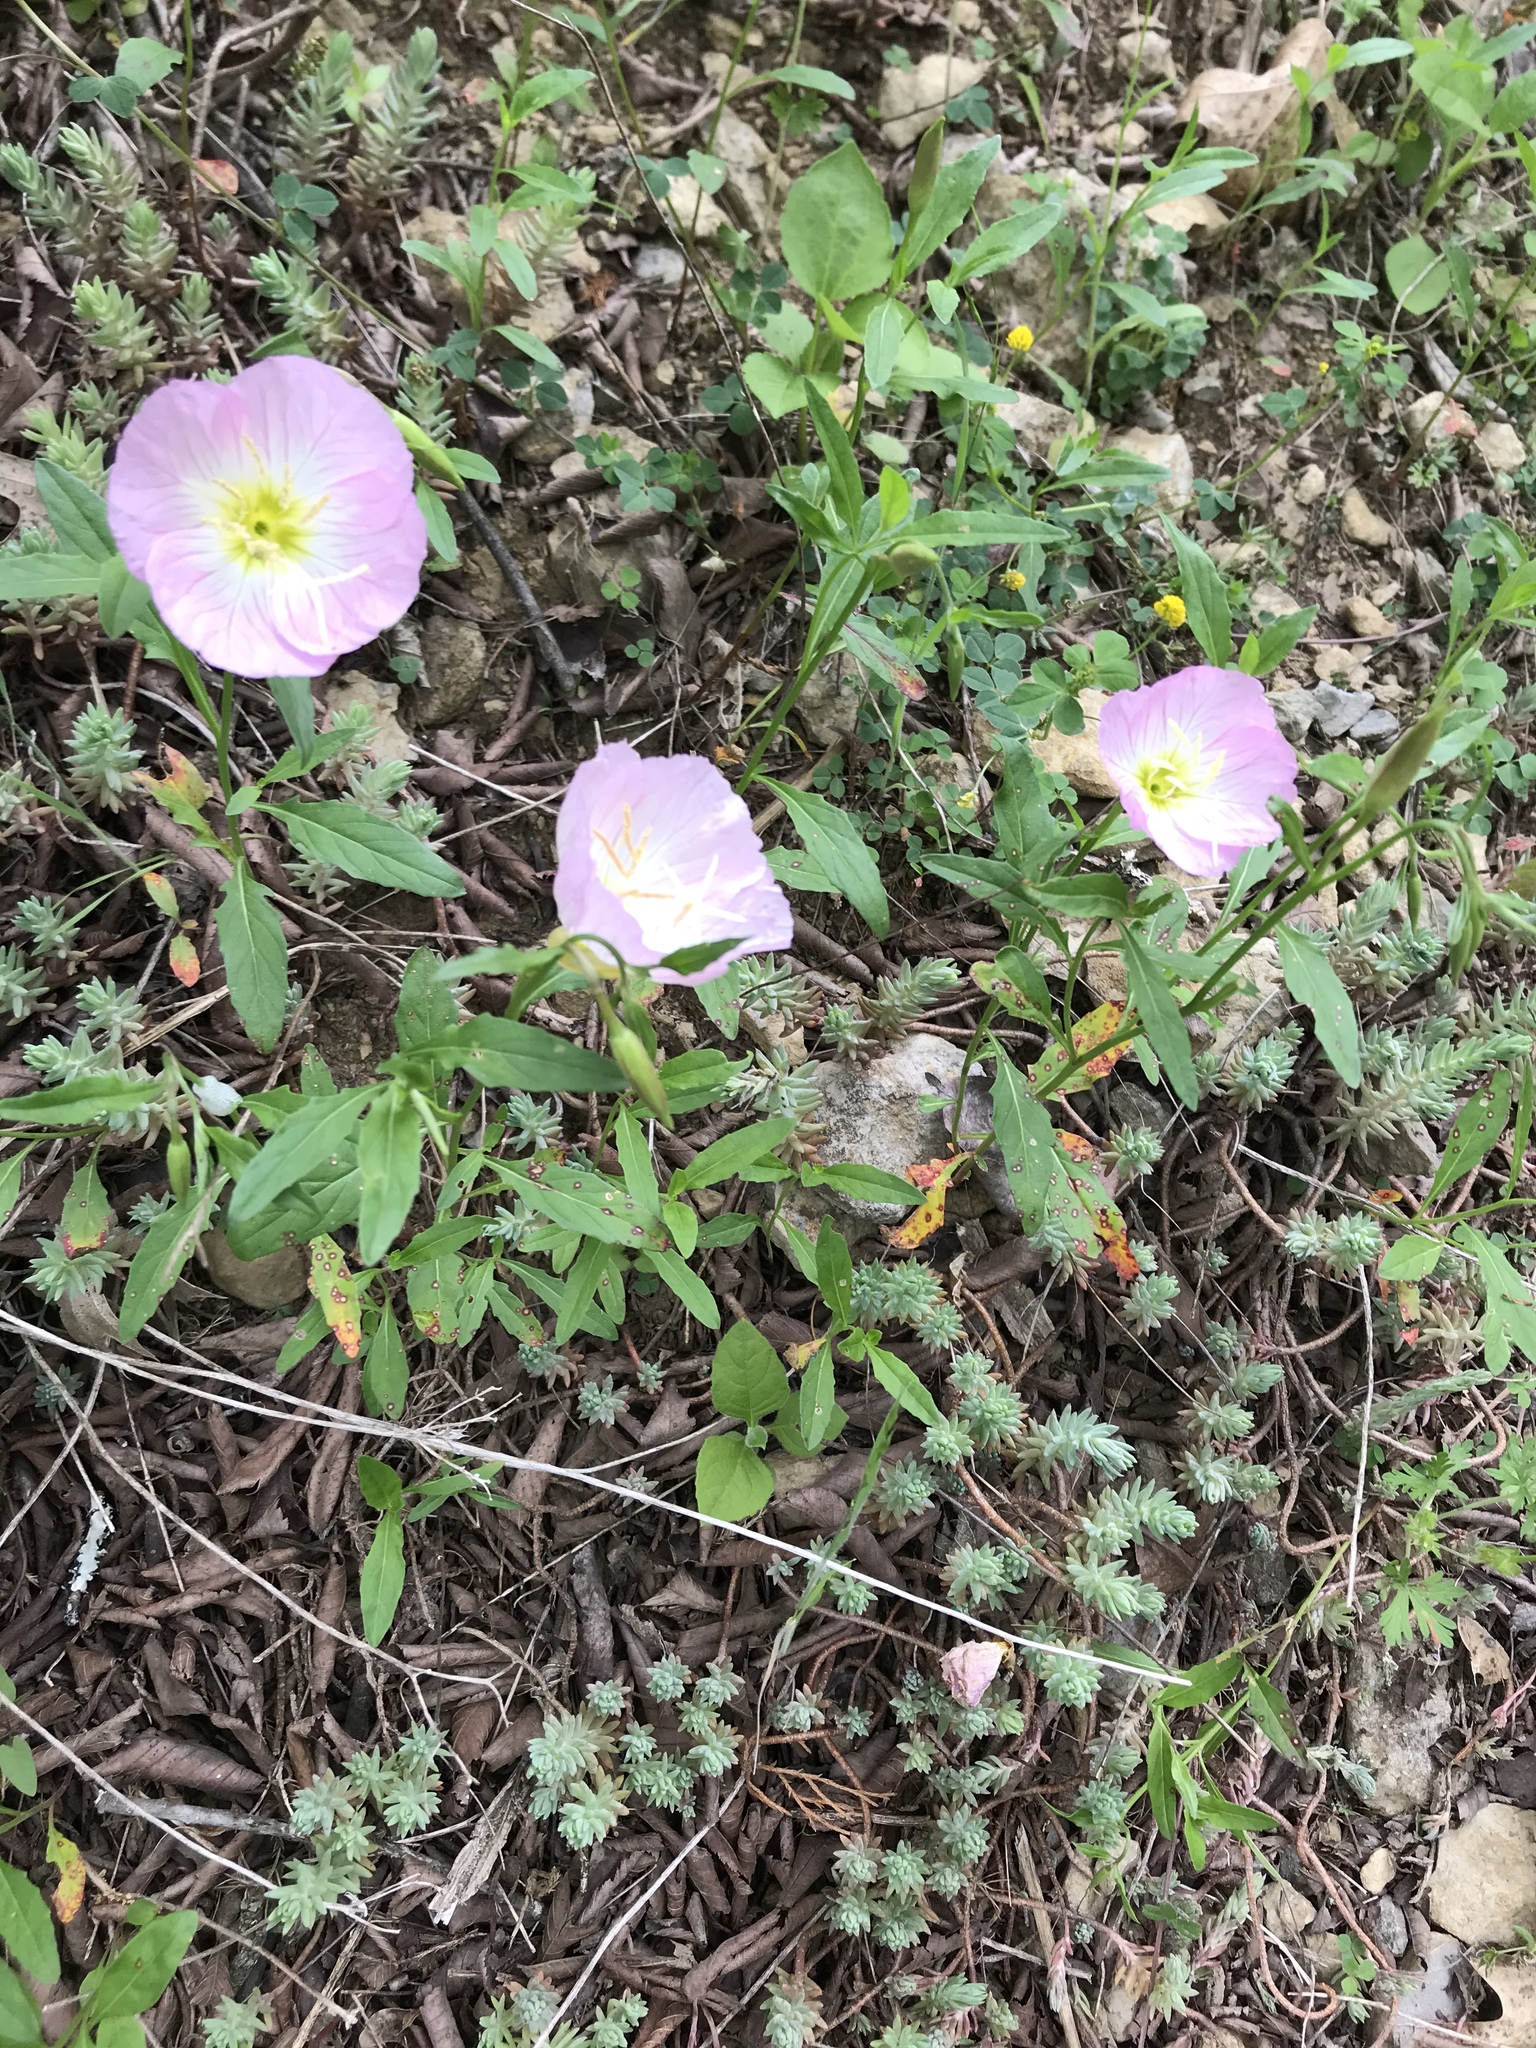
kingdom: Plantae
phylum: Tracheophyta
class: Magnoliopsida
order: Myrtales
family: Onagraceae
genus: Oenothera
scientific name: Oenothera speciosa
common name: White evening-primrose
